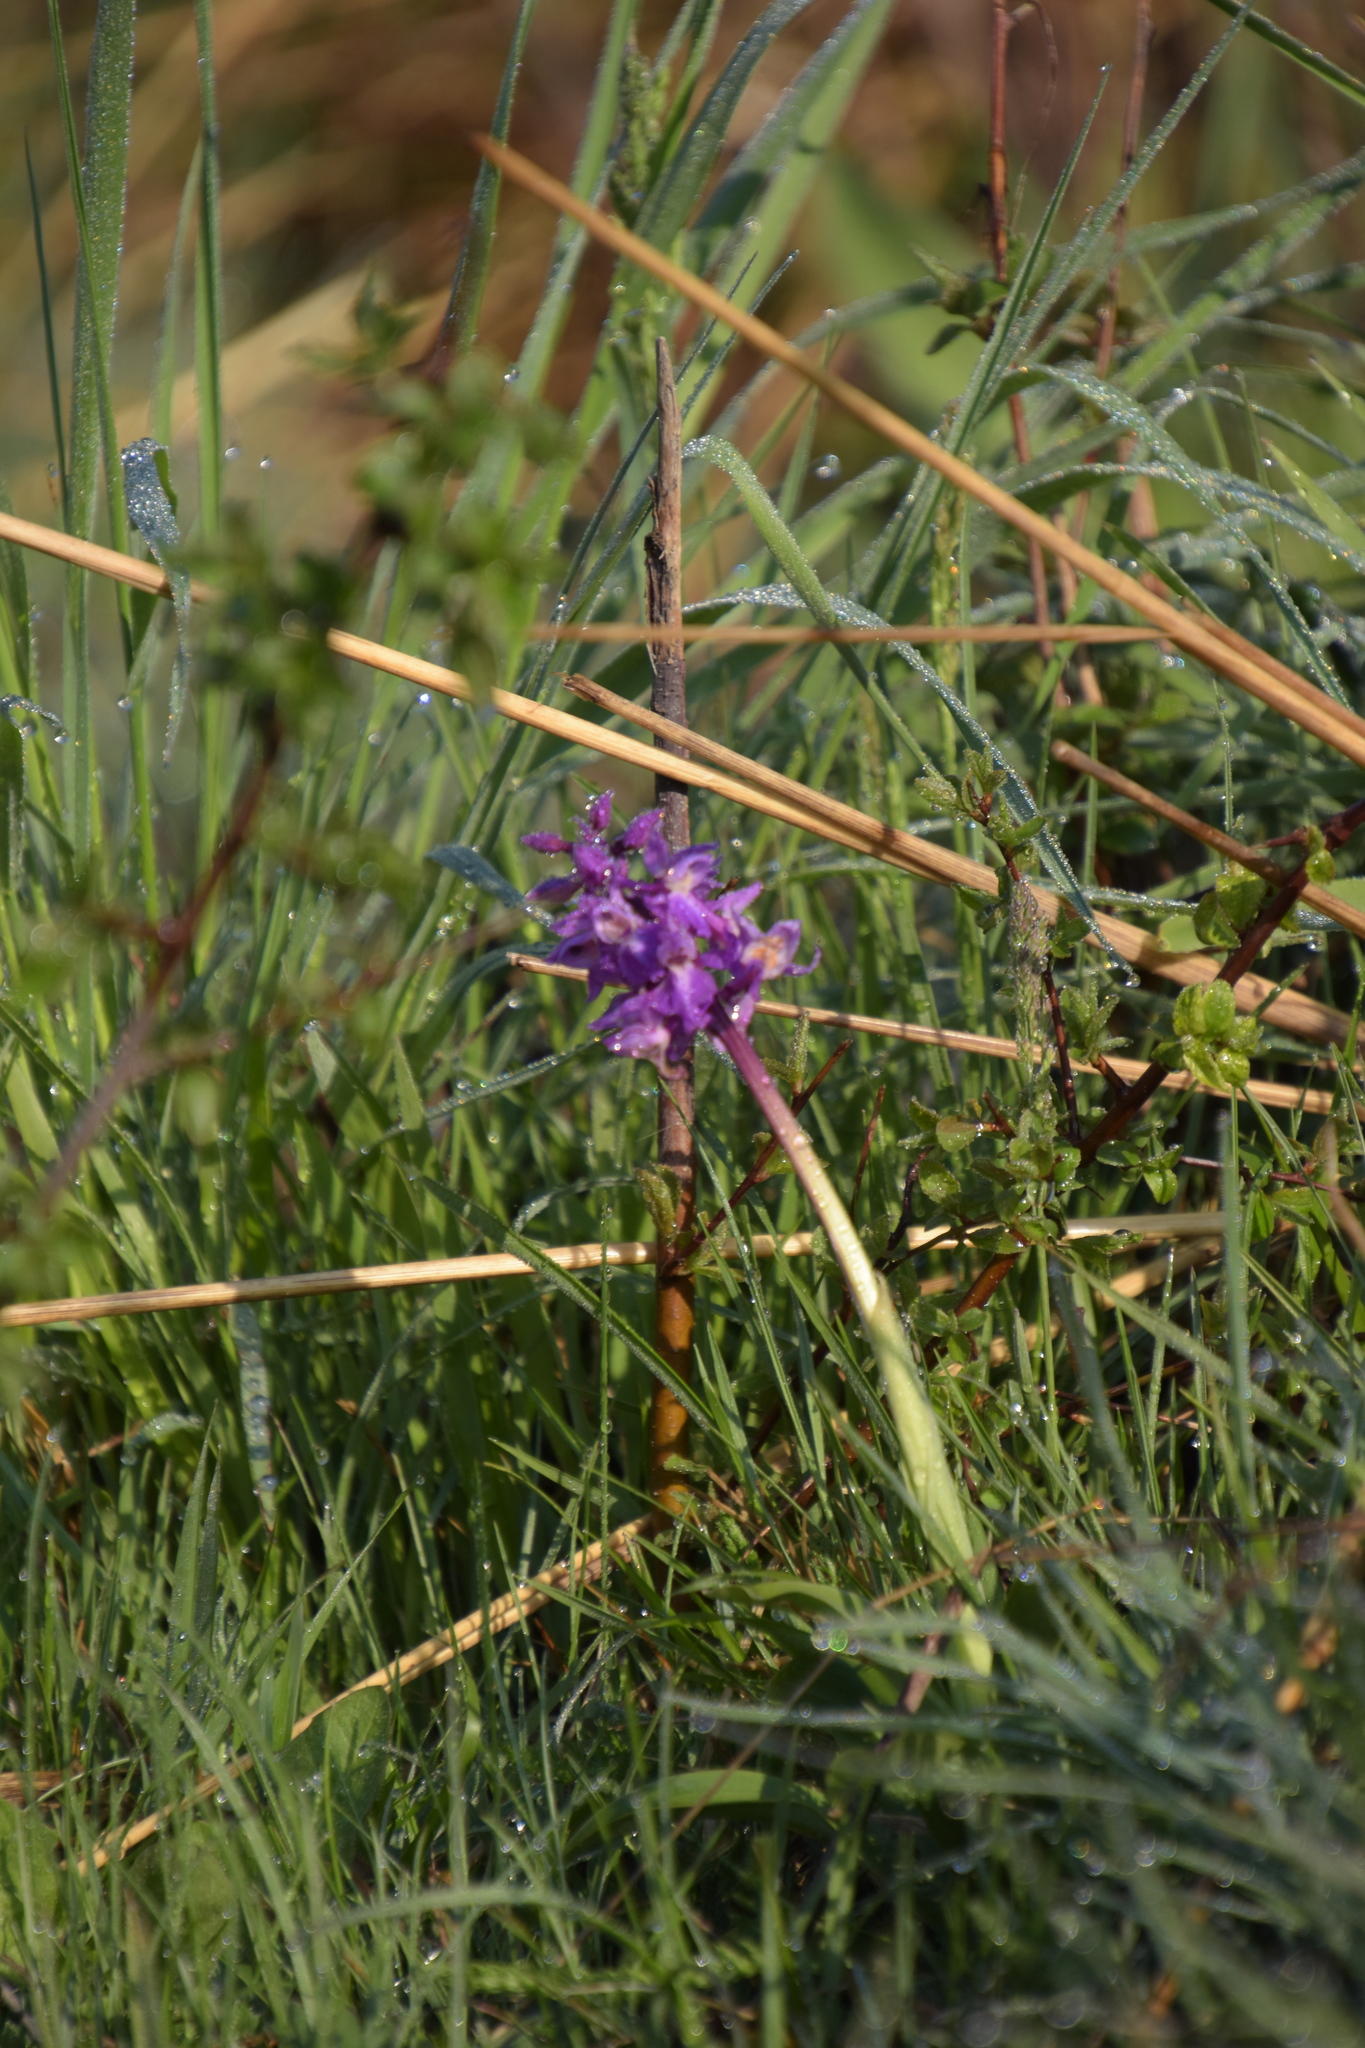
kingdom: Plantae
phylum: Tracheophyta
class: Liliopsida
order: Asparagales
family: Orchidaceae
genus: Orchis
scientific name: Orchis mascula
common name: Early-purple orchid
